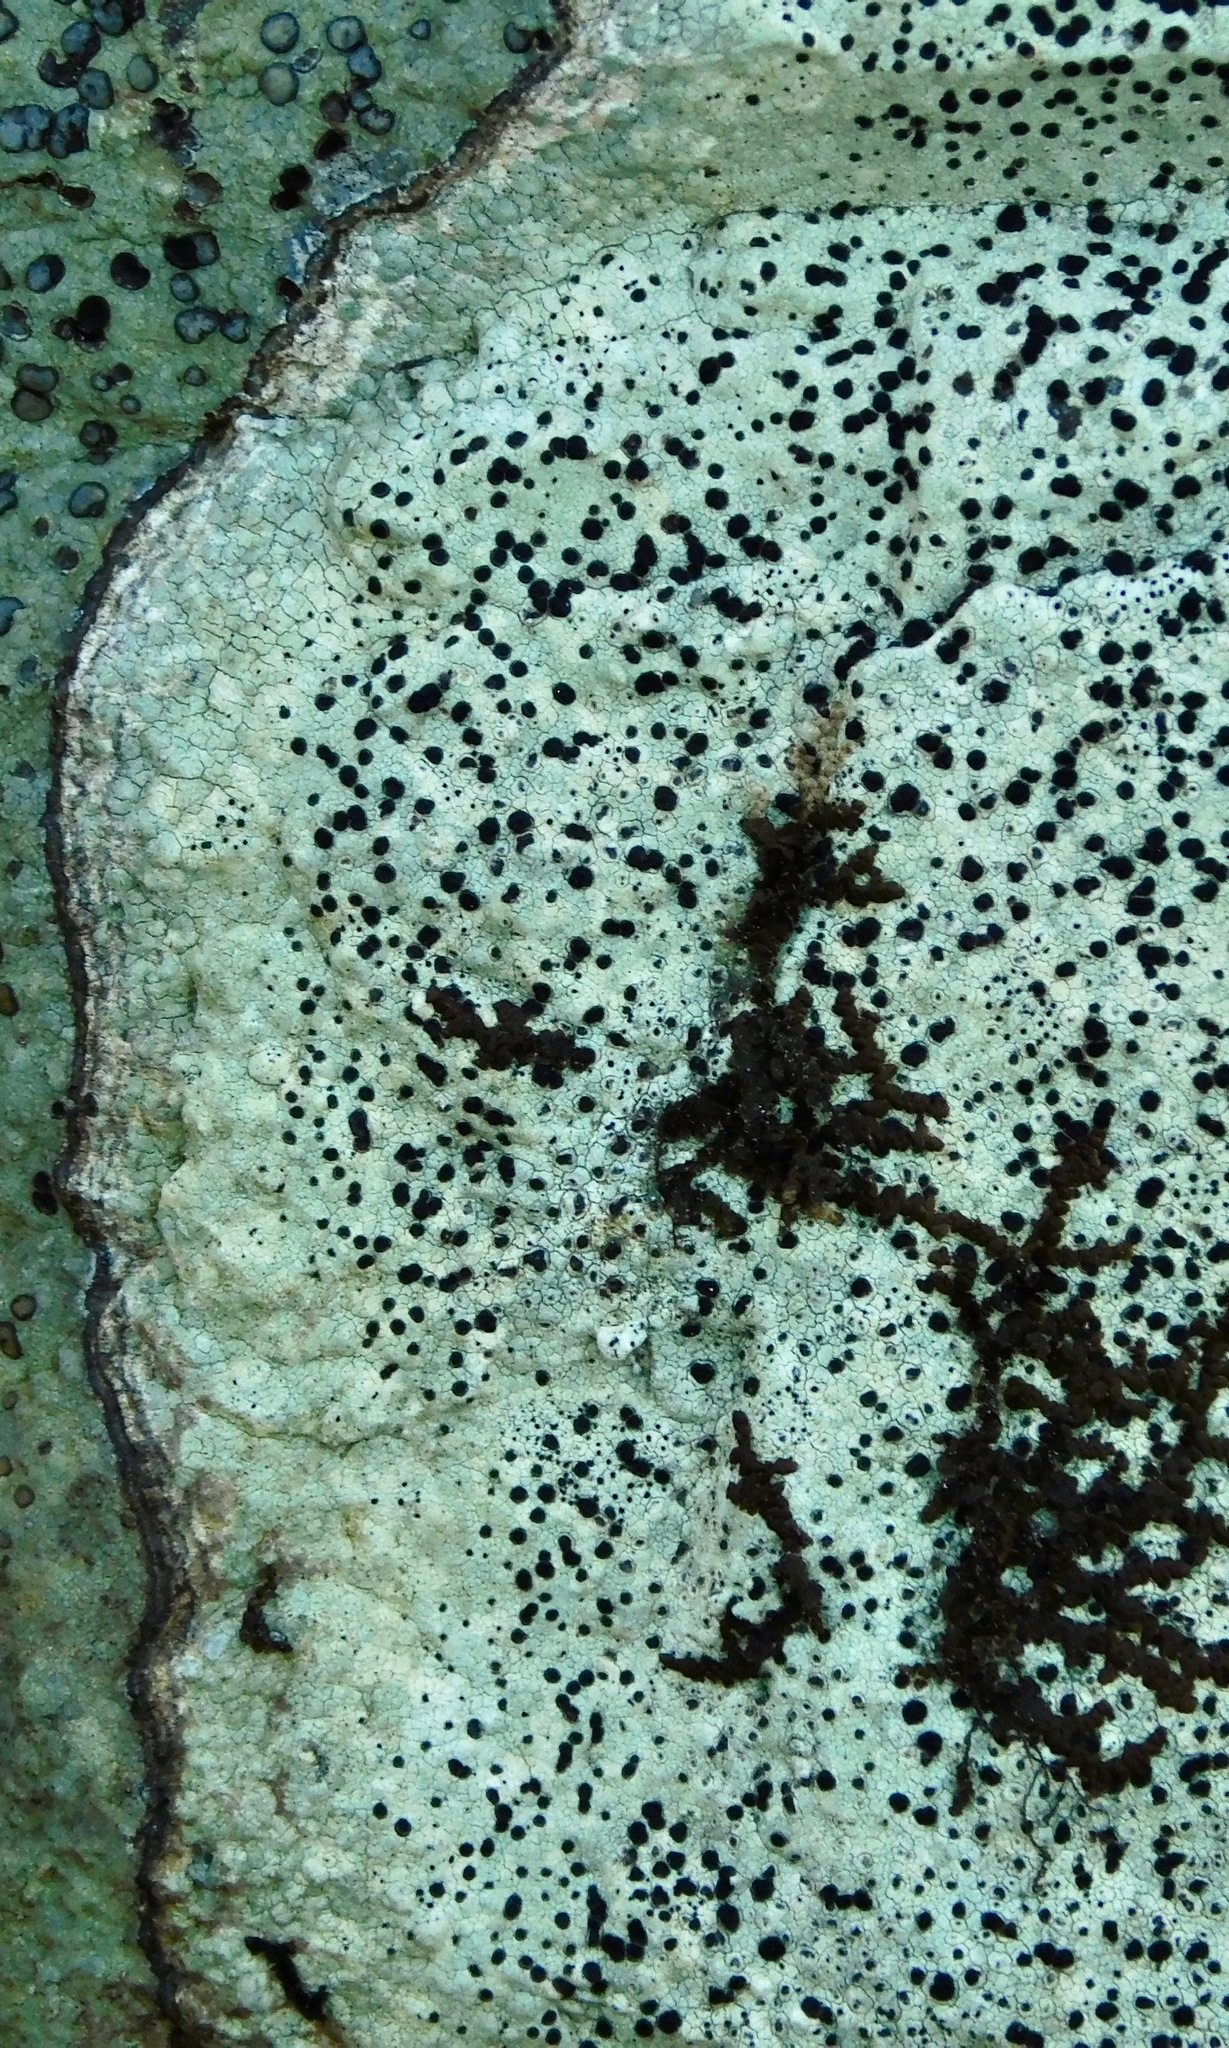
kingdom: Fungi
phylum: Ascomycota
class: Lecanoromycetes
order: Caliciales
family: Caliciaceae
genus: Buellia
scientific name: Buellia mamillana
